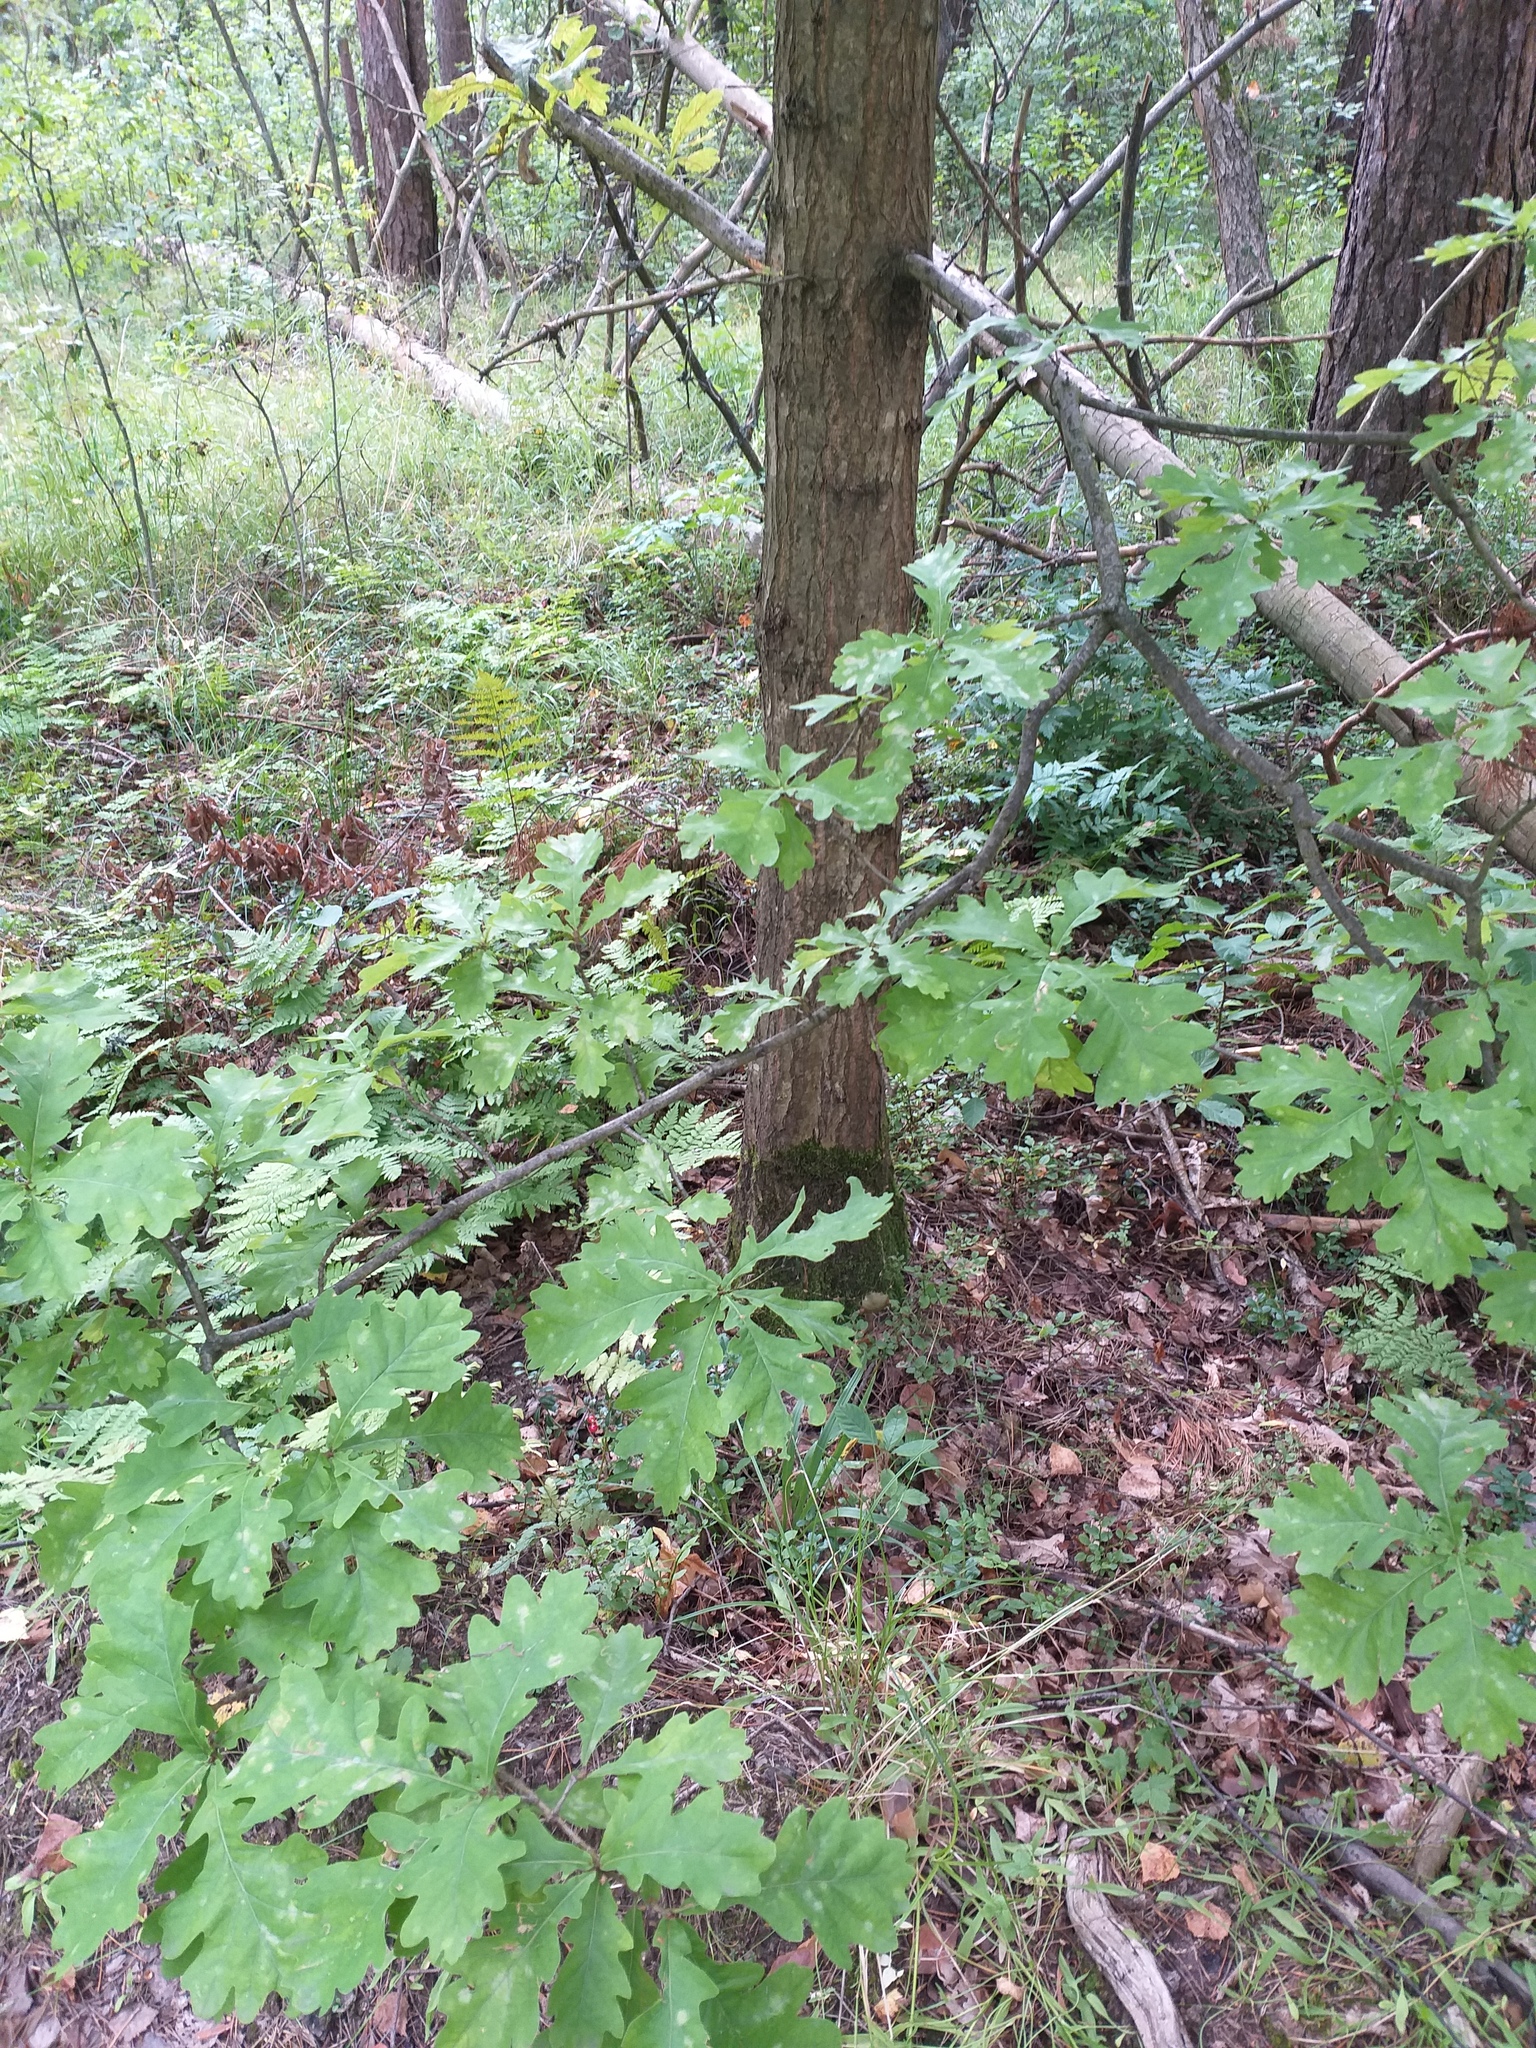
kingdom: Plantae
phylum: Tracheophyta
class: Magnoliopsida
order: Fagales
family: Fagaceae
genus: Quercus
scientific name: Quercus robur
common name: Pedunculate oak
